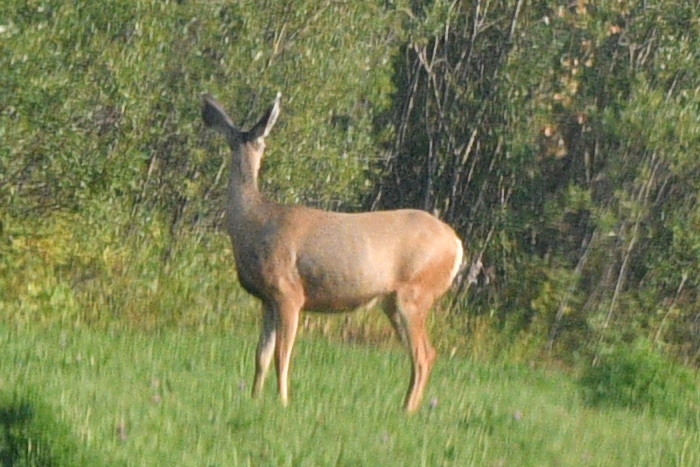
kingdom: Animalia
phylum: Chordata
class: Mammalia
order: Artiodactyla
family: Cervidae
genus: Odocoileus
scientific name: Odocoileus hemionus
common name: Mule deer
